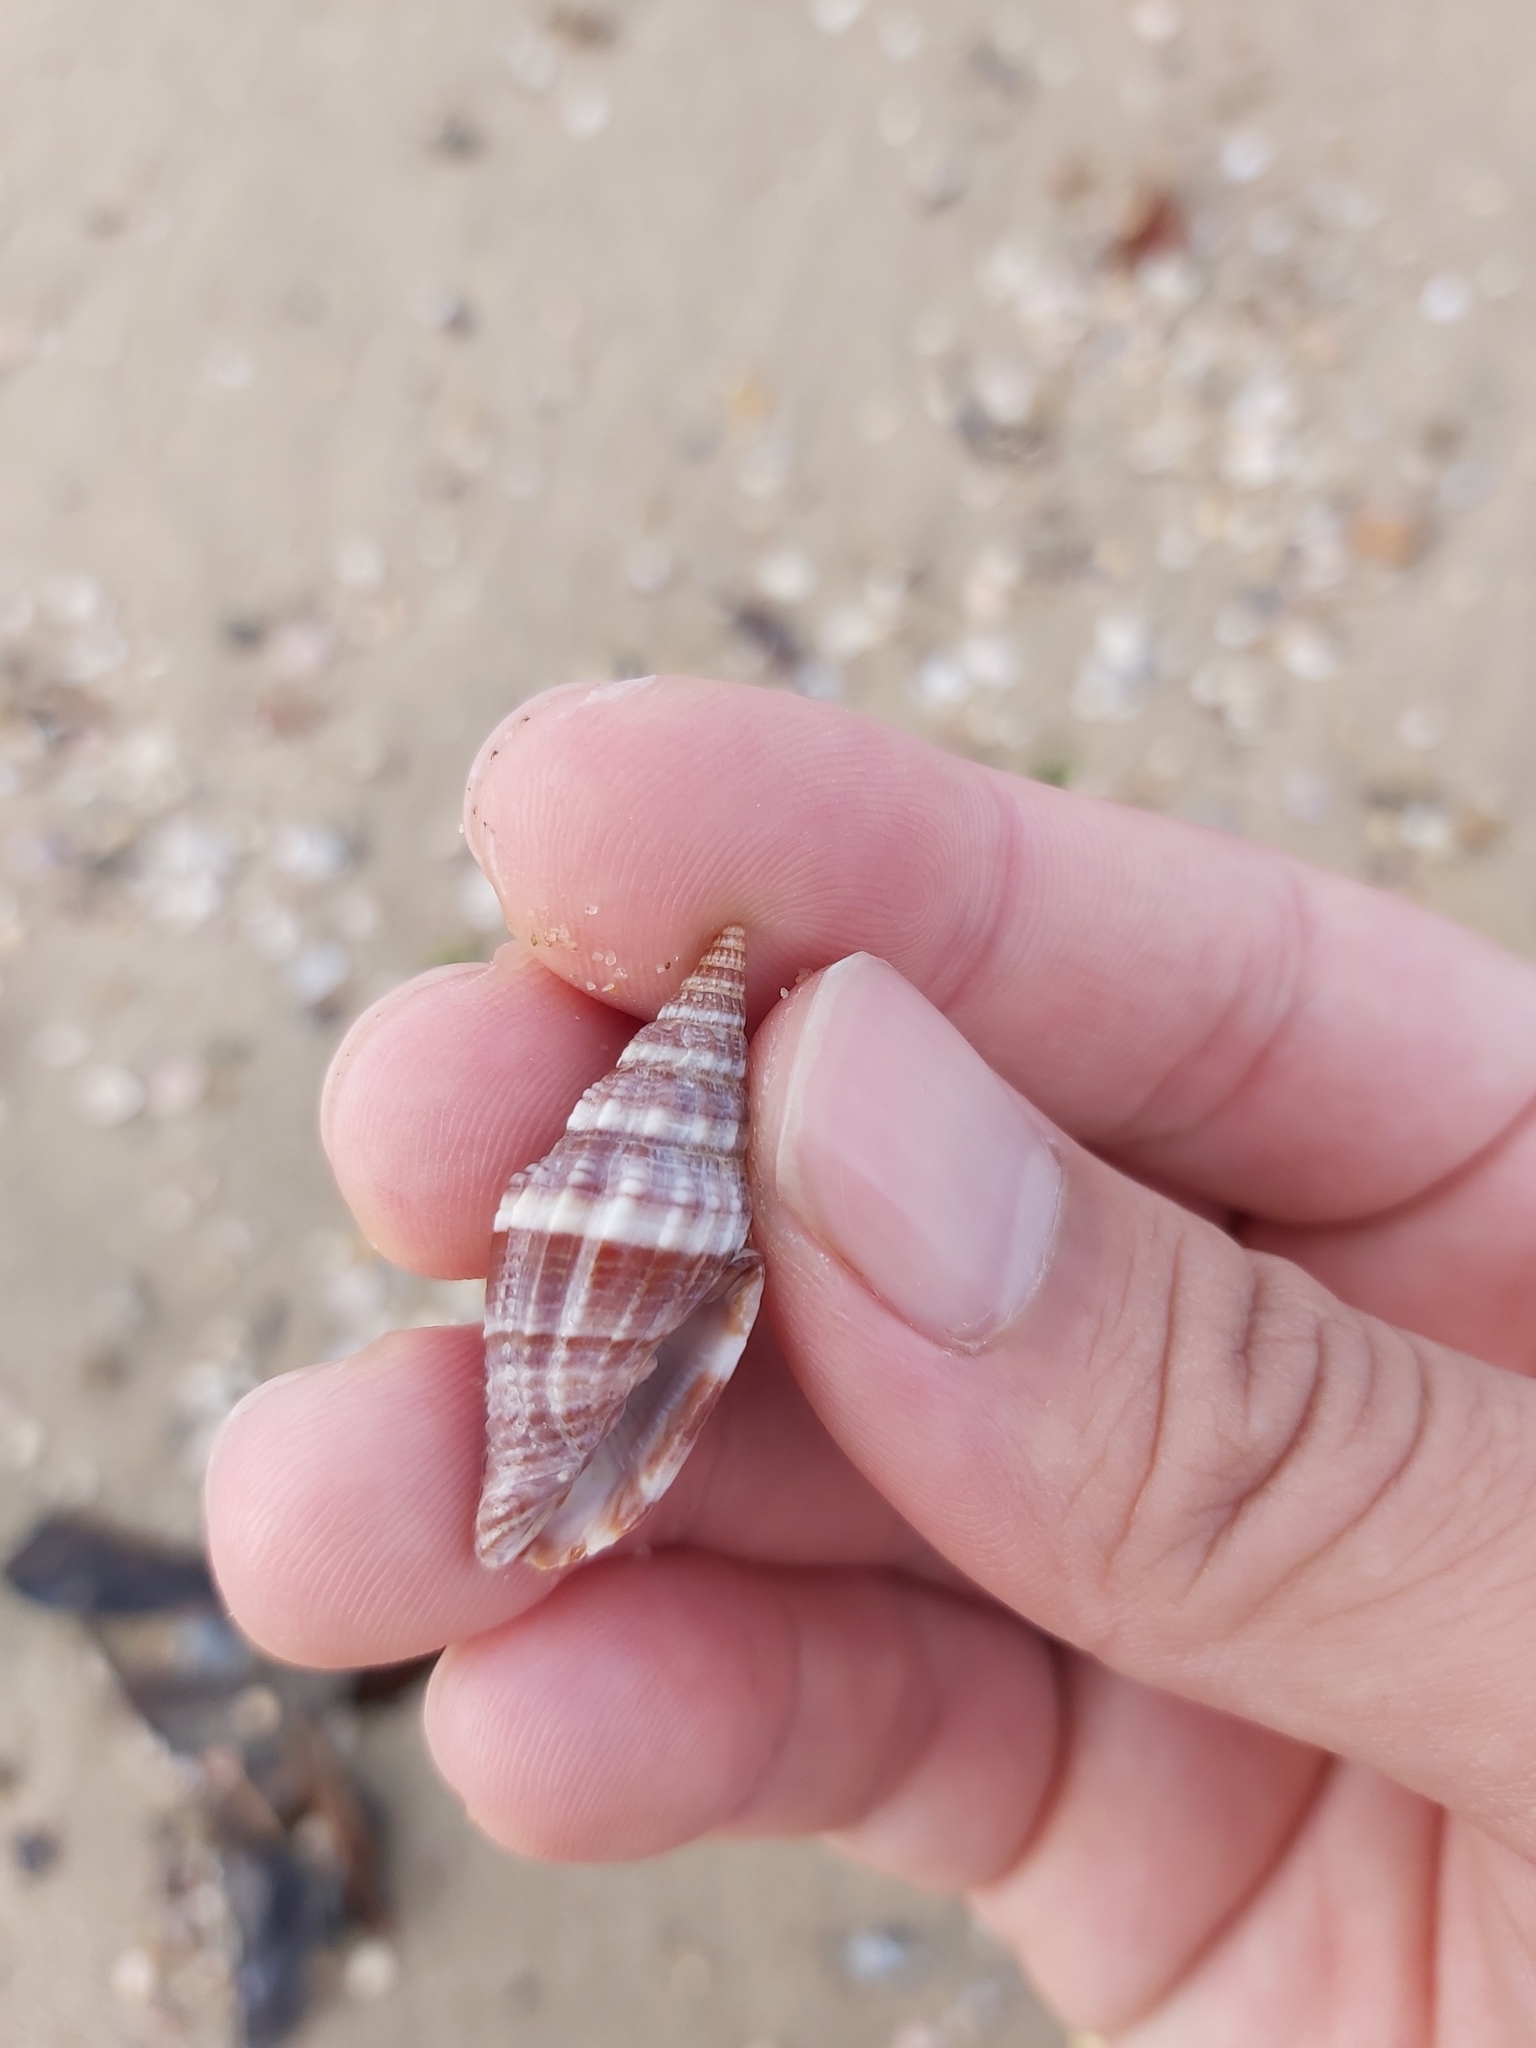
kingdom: Animalia
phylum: Mollusca
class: Gastropoda
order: Neogastropoda
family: Costellariidae
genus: Vexillum
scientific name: Vexillum rugosum
